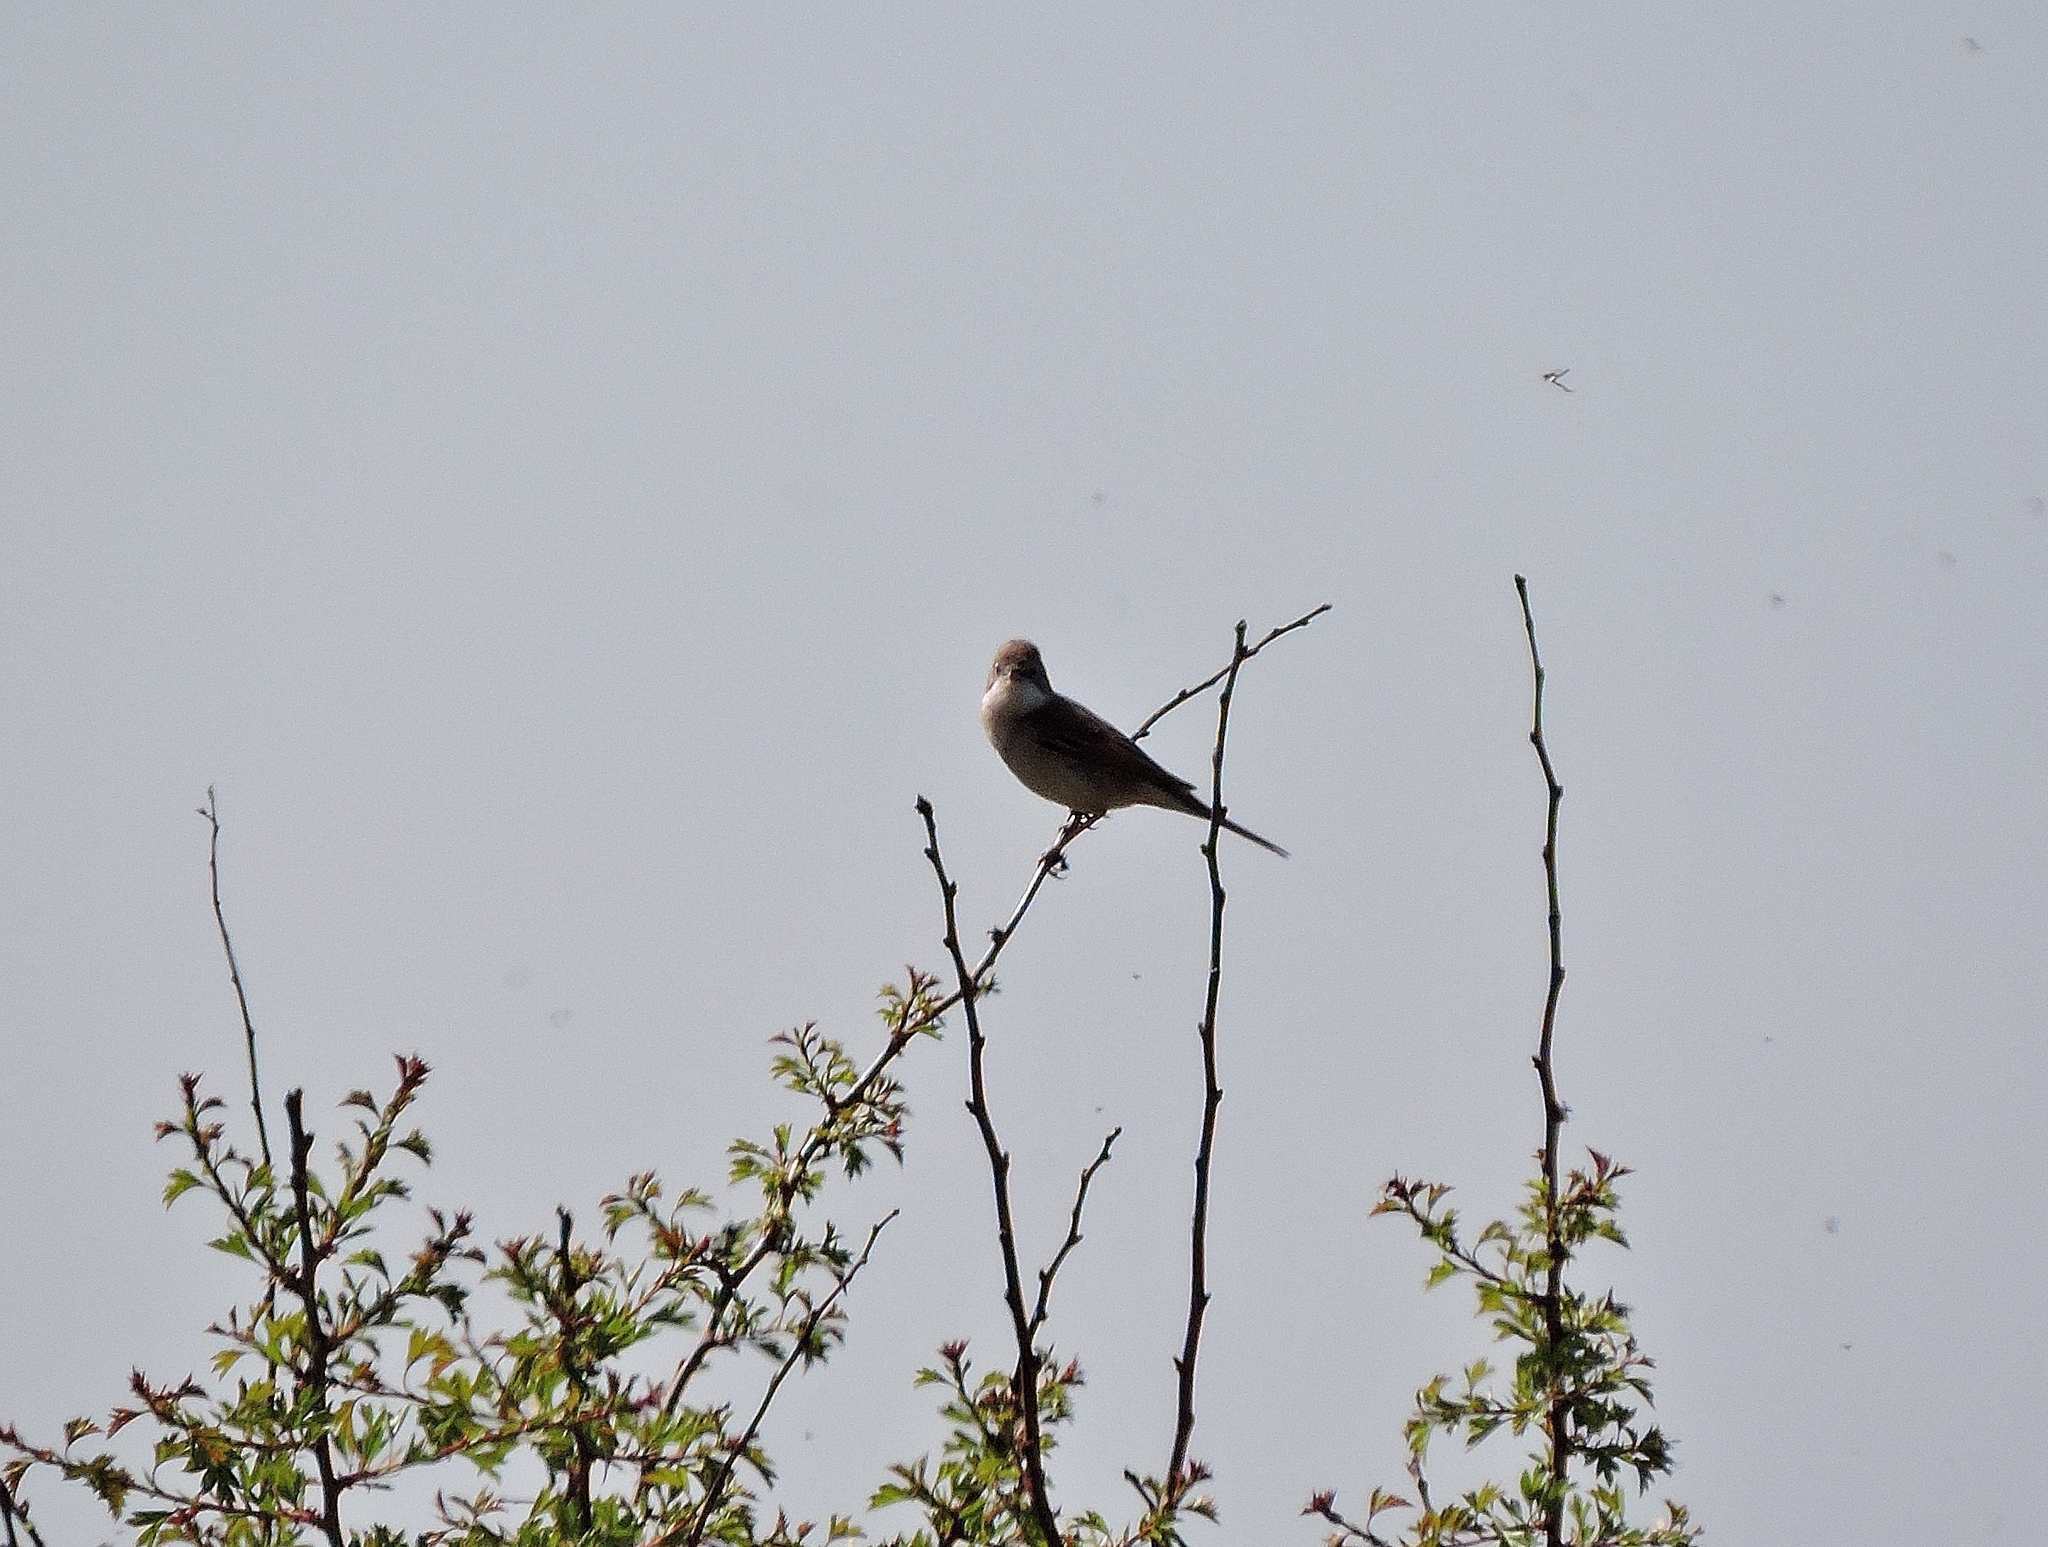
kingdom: Animalia
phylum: Chordata
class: Aves
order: Passeriformes
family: Sylviidae
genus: Sylvia
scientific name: Sylvia communis
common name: Common whitethroat
